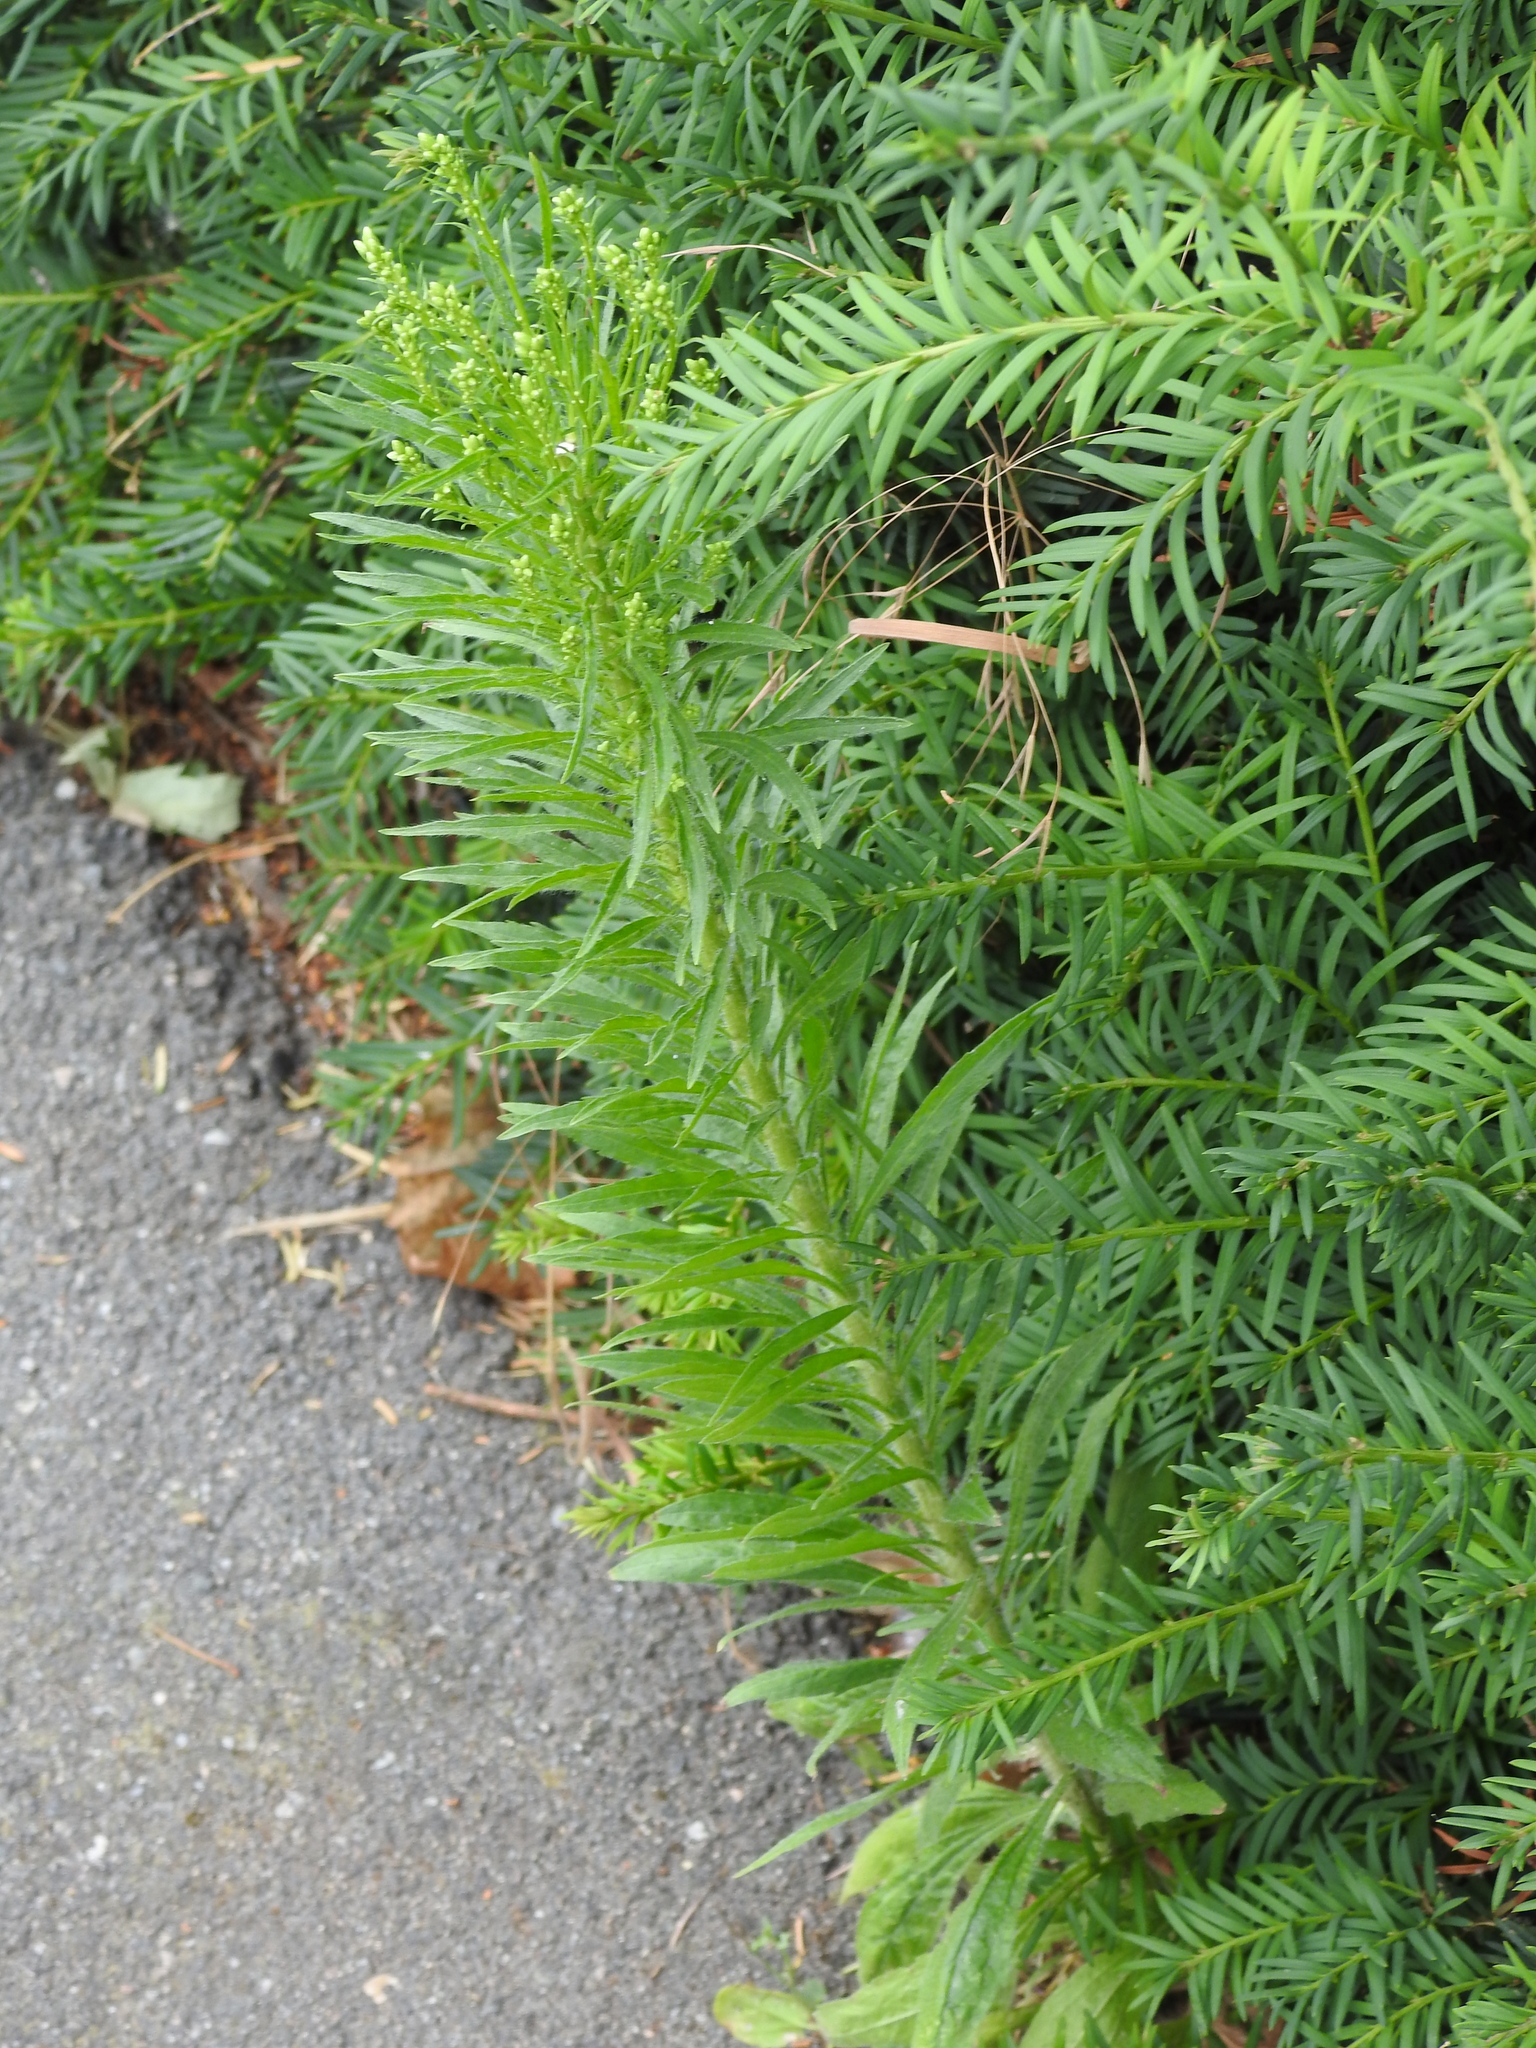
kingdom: Plantae
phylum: Tracheophyta
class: Magnoliopsida
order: Asterales
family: Asteraceae
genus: Erigeron
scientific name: Erigeron canadensis
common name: Canadian fleabane
